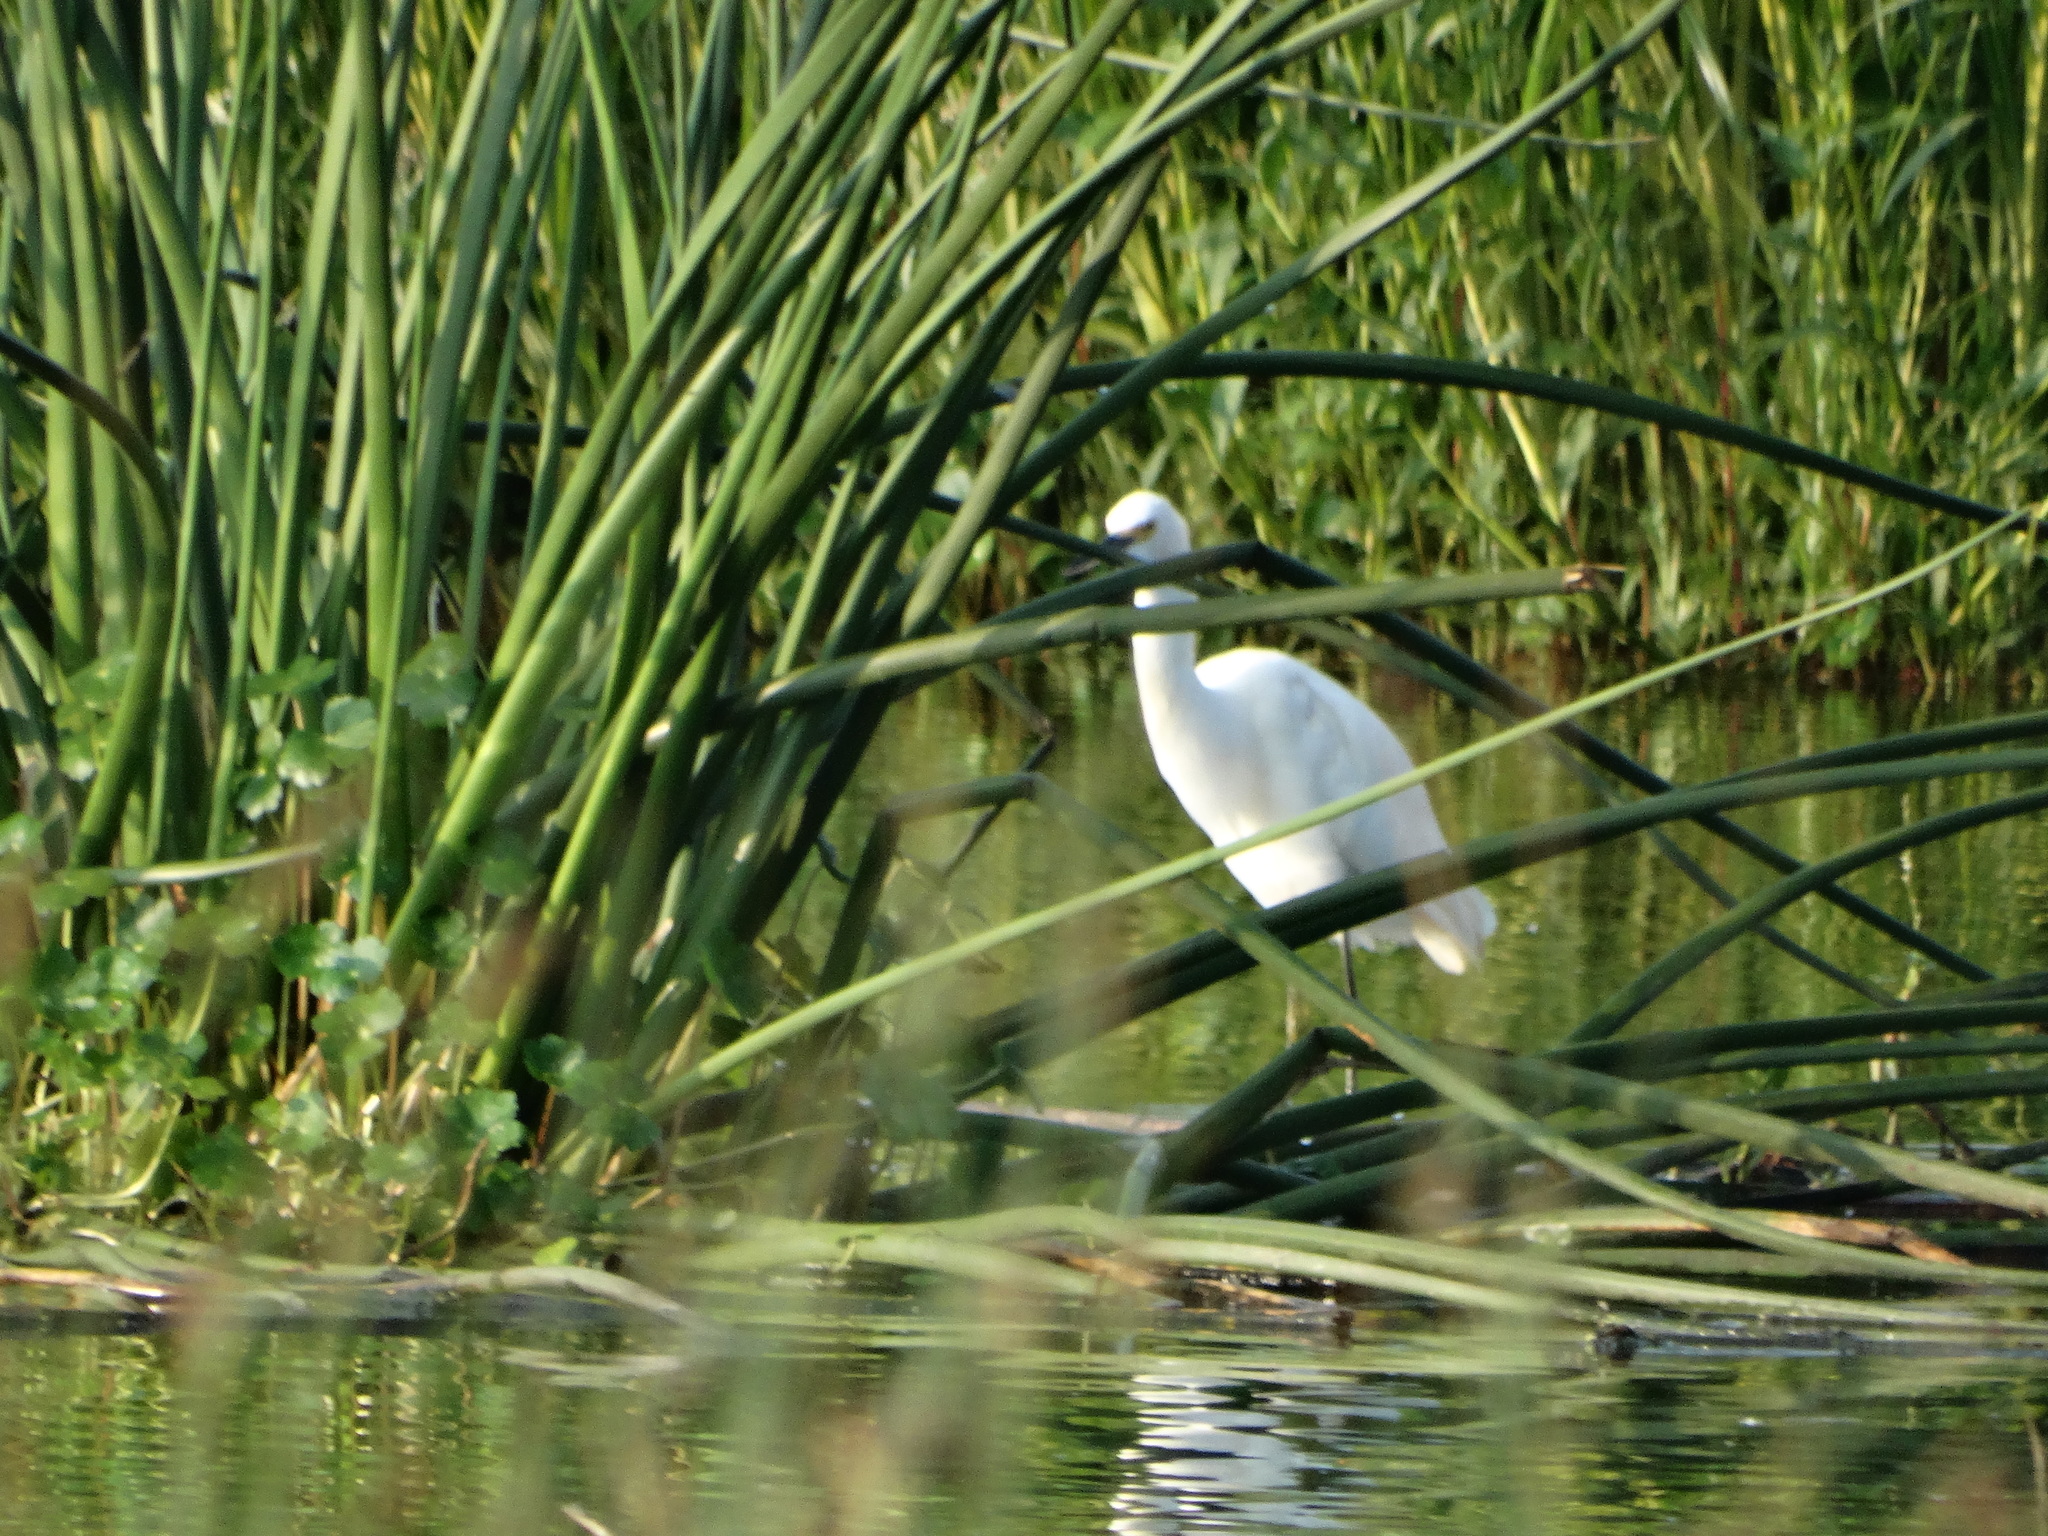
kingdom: Animalia
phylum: Chordata
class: Aves
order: Pelecaniformes
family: Ardeidae
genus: Egretta
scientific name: Egretta thula
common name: Snowy egret
